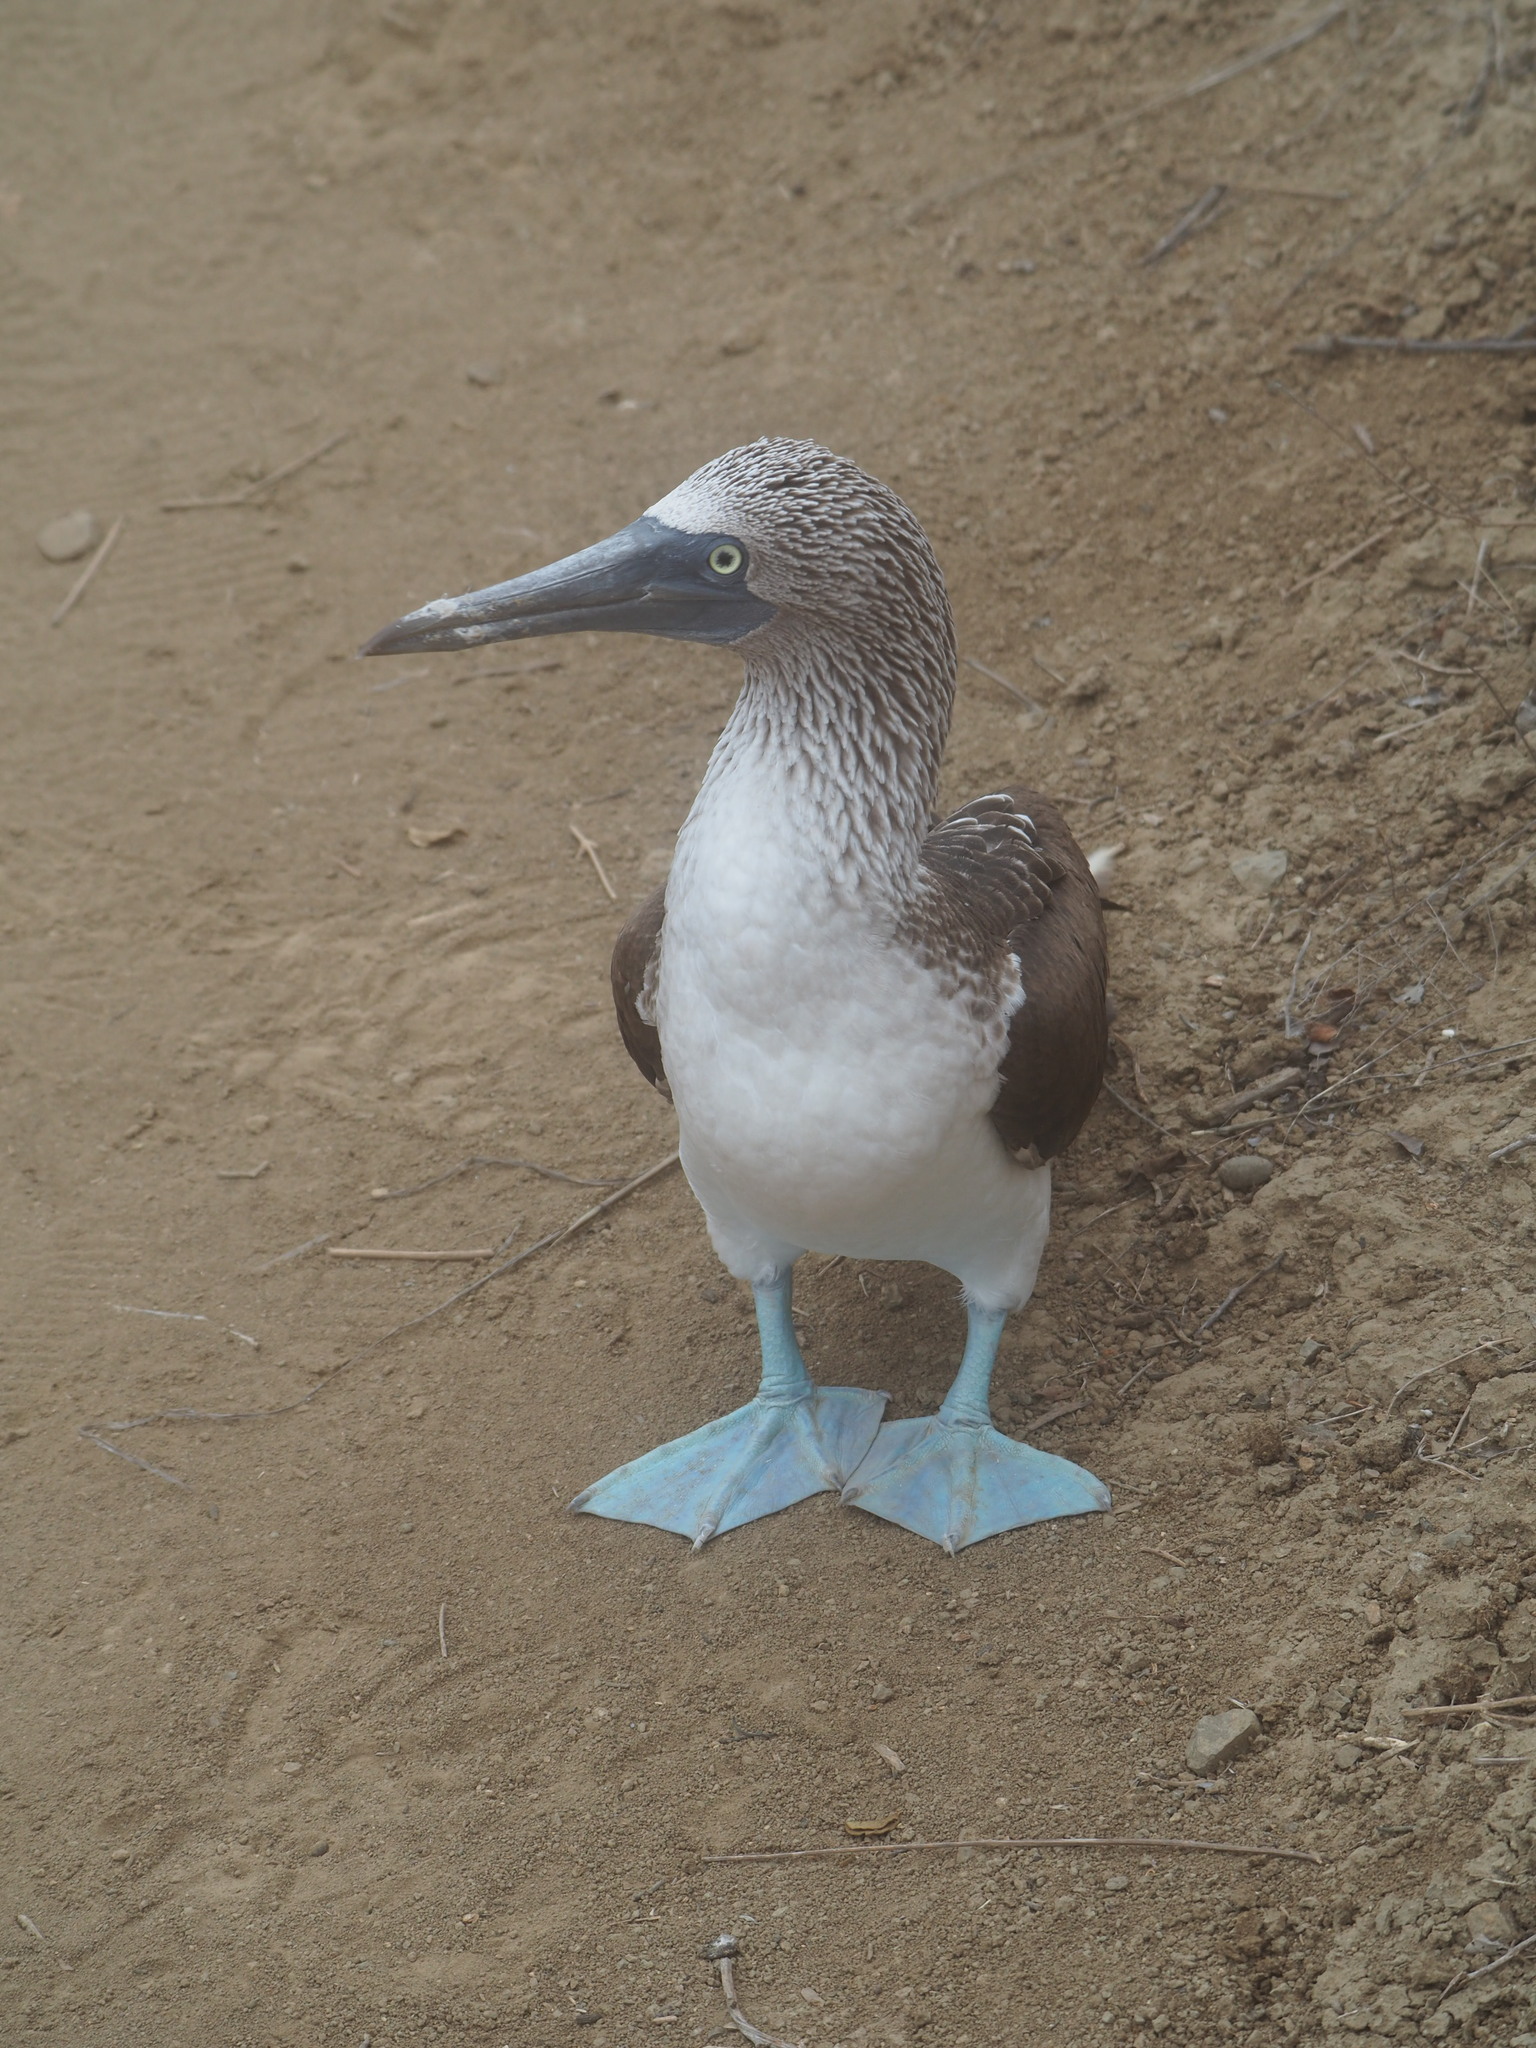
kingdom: Animalia
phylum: Chordata
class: Aves
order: Suliformes
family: Sulidae
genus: Sula
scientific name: Sula nebouxii
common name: Blue-footed booby
